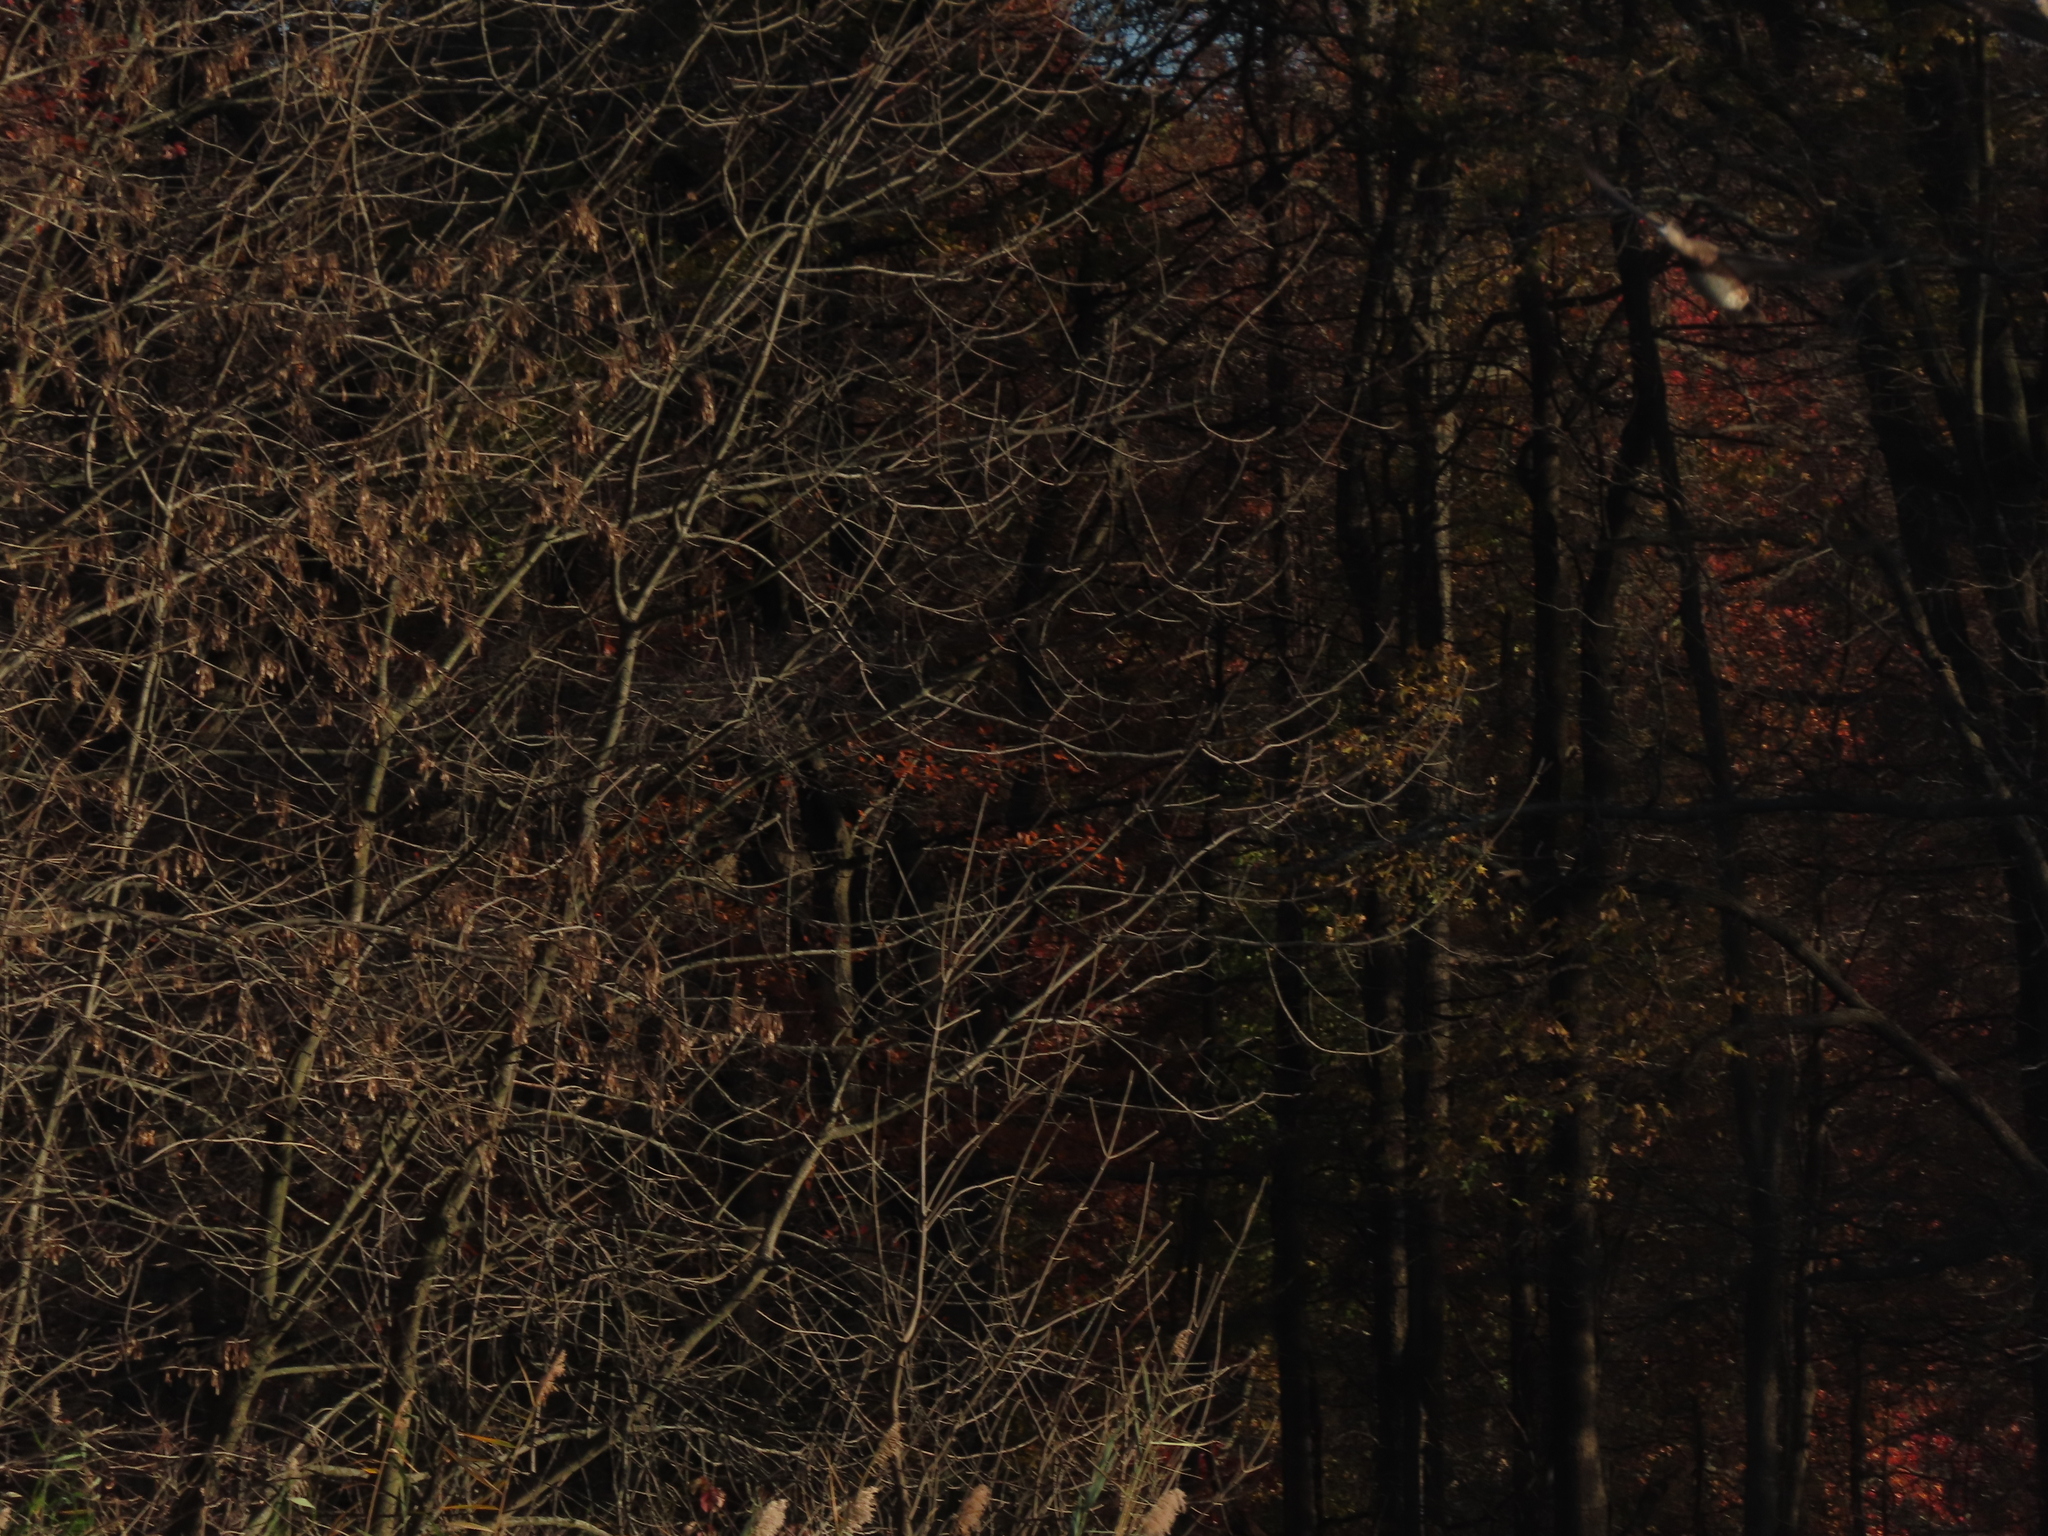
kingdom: Animalia
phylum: Chordata
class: Aves
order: Anseriformes
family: Anatidae
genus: Mareca
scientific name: Mareca americana
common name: American wigeon
